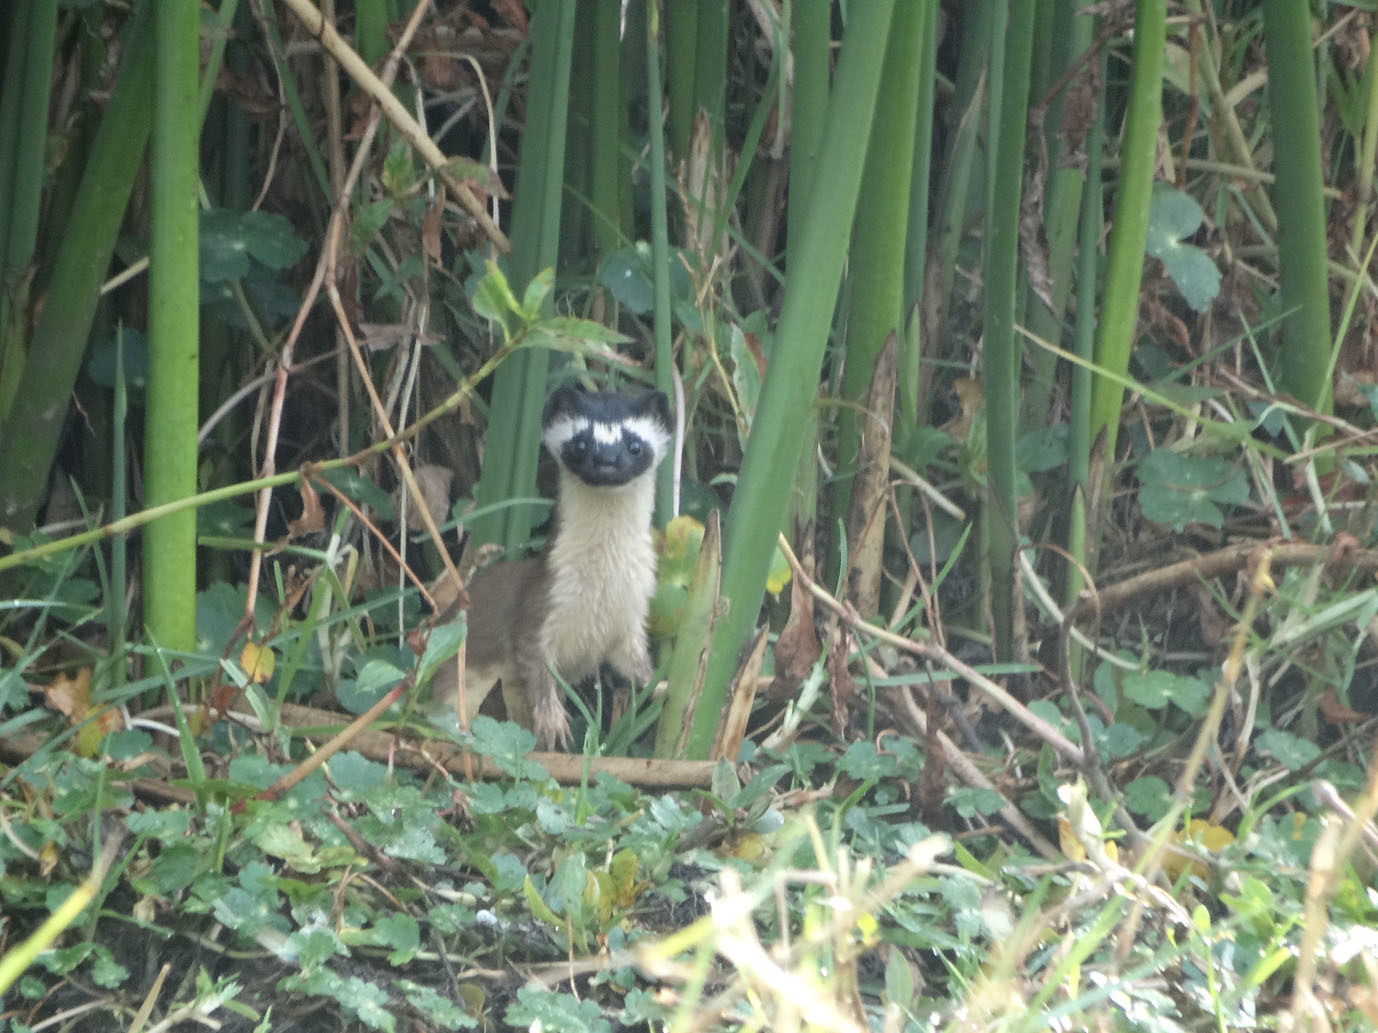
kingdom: Animalia
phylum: Chordata
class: Mammalia
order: Carnivora
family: Mustelidae
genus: Mustela
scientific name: Mustela
